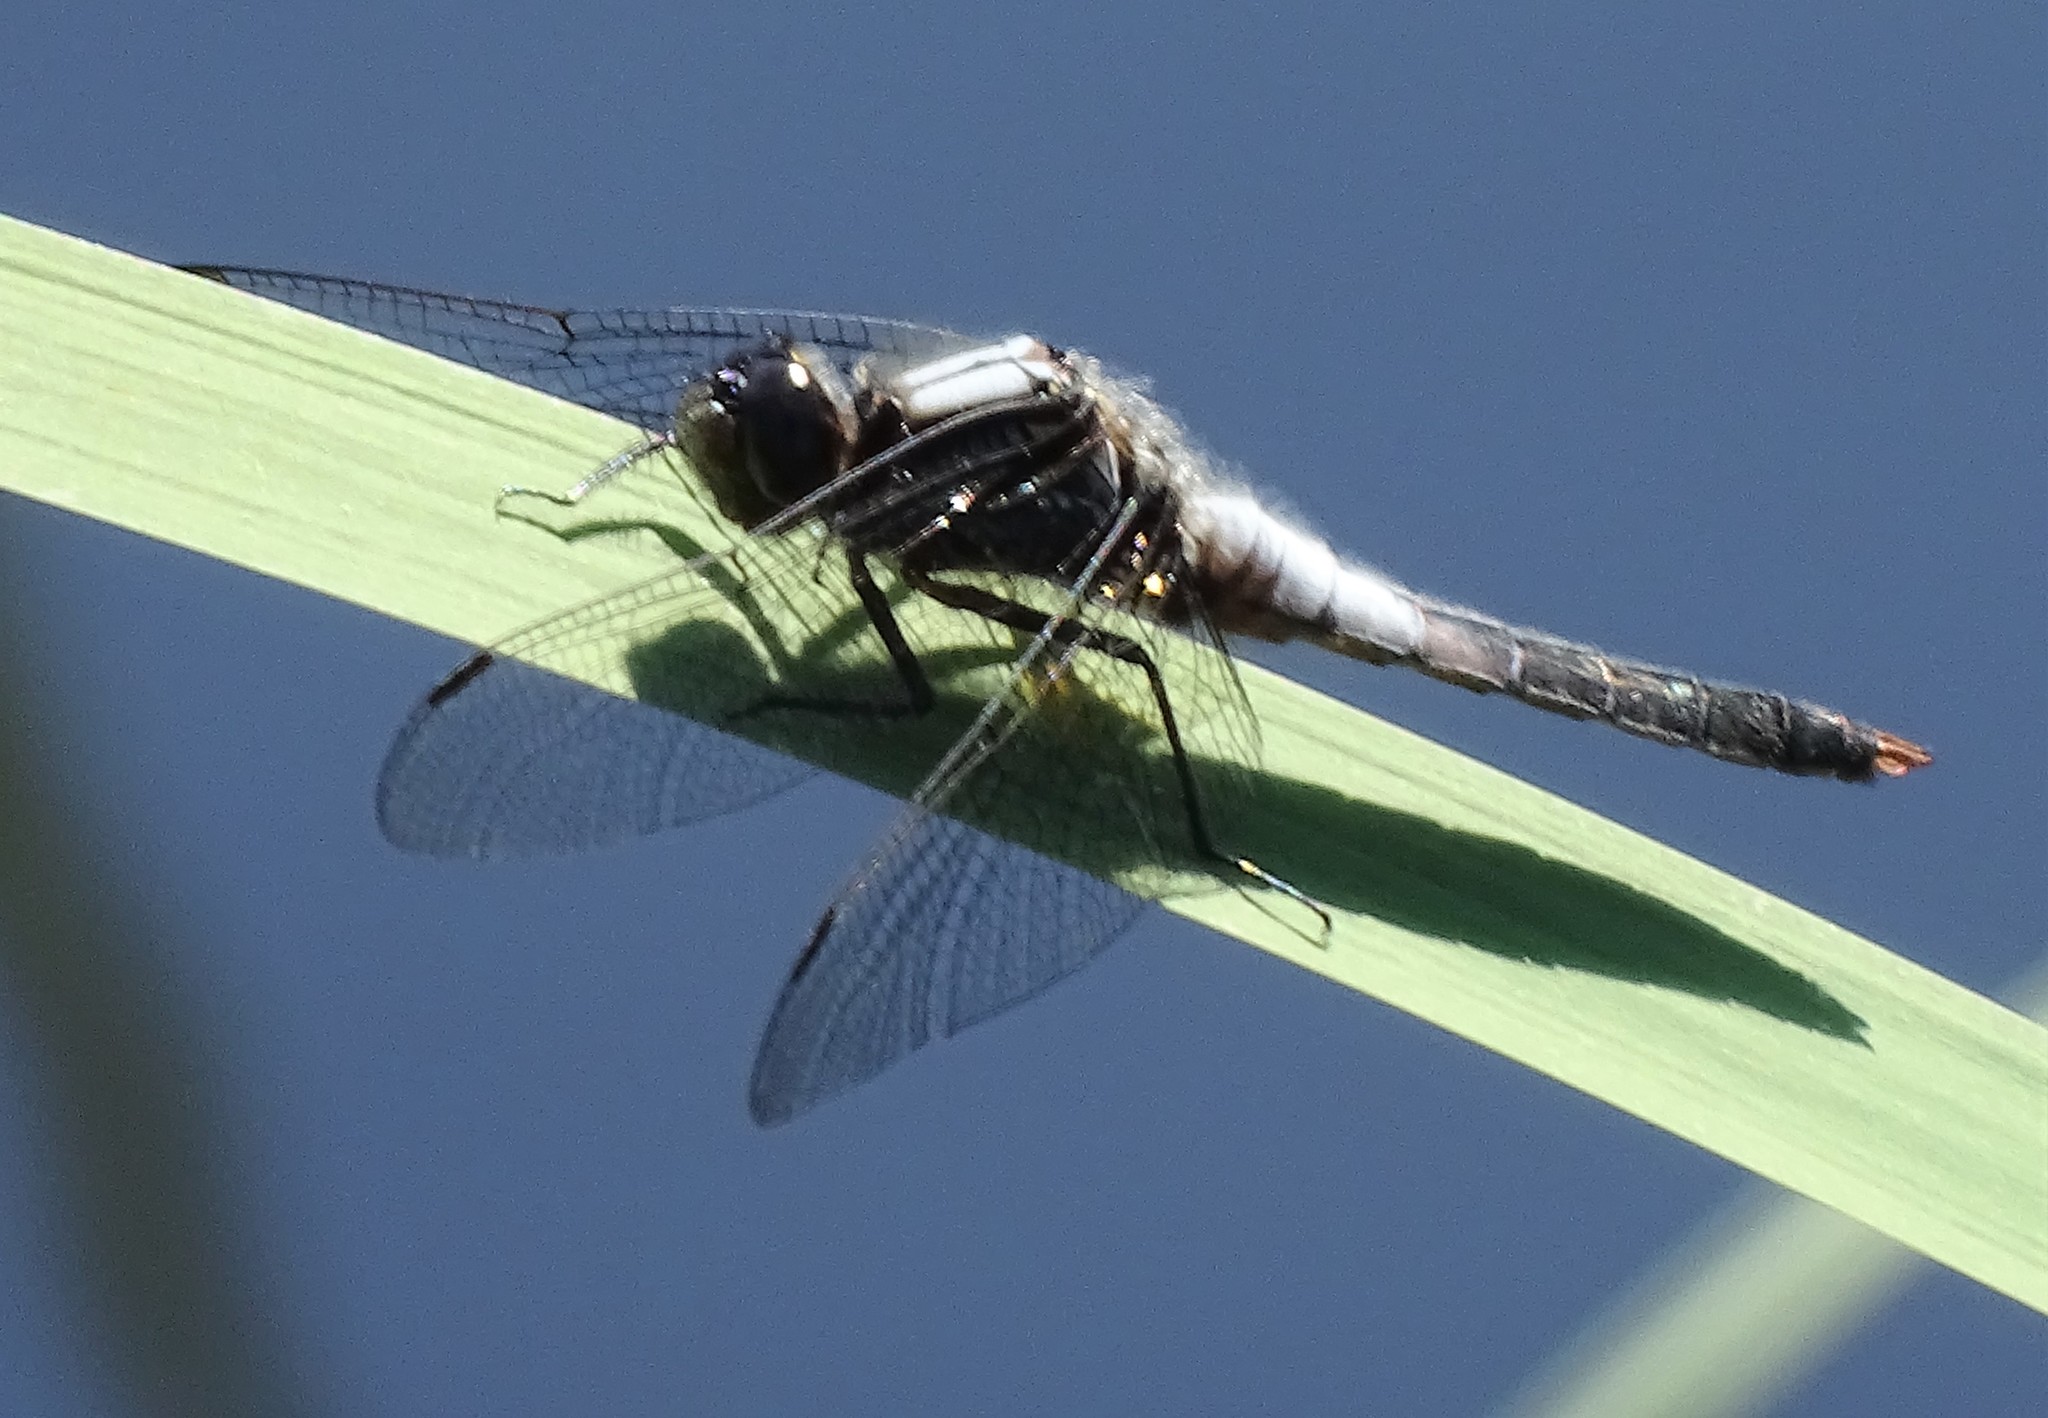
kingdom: Animalia
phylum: Arthropoda
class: Insecta
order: Odonata
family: Libellulidae
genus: Ladona
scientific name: Ladona julia
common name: Chalk-fronted corporal
